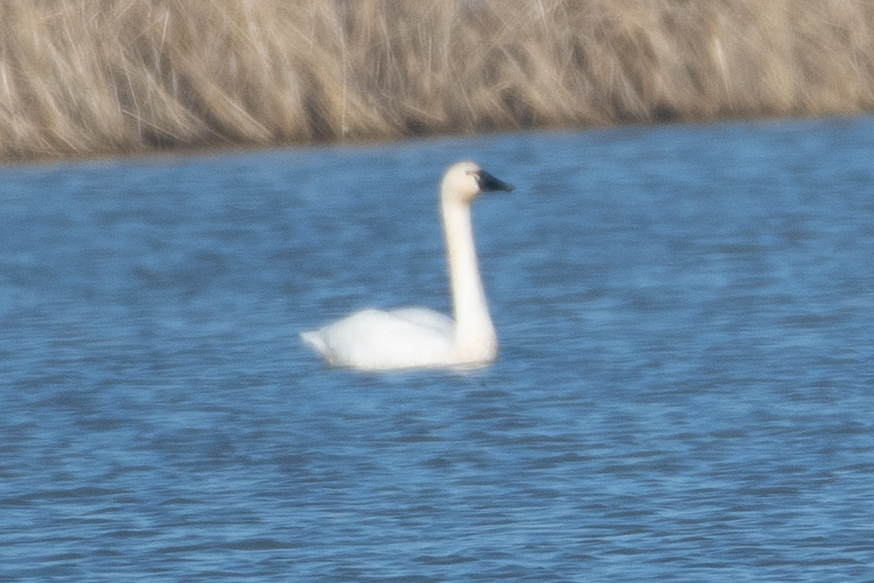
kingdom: Animalia
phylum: Chordata
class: Aves
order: Anseriformes
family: Anatidae
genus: Cygnus
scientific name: Cygnus columbianus
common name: Tundra swan
